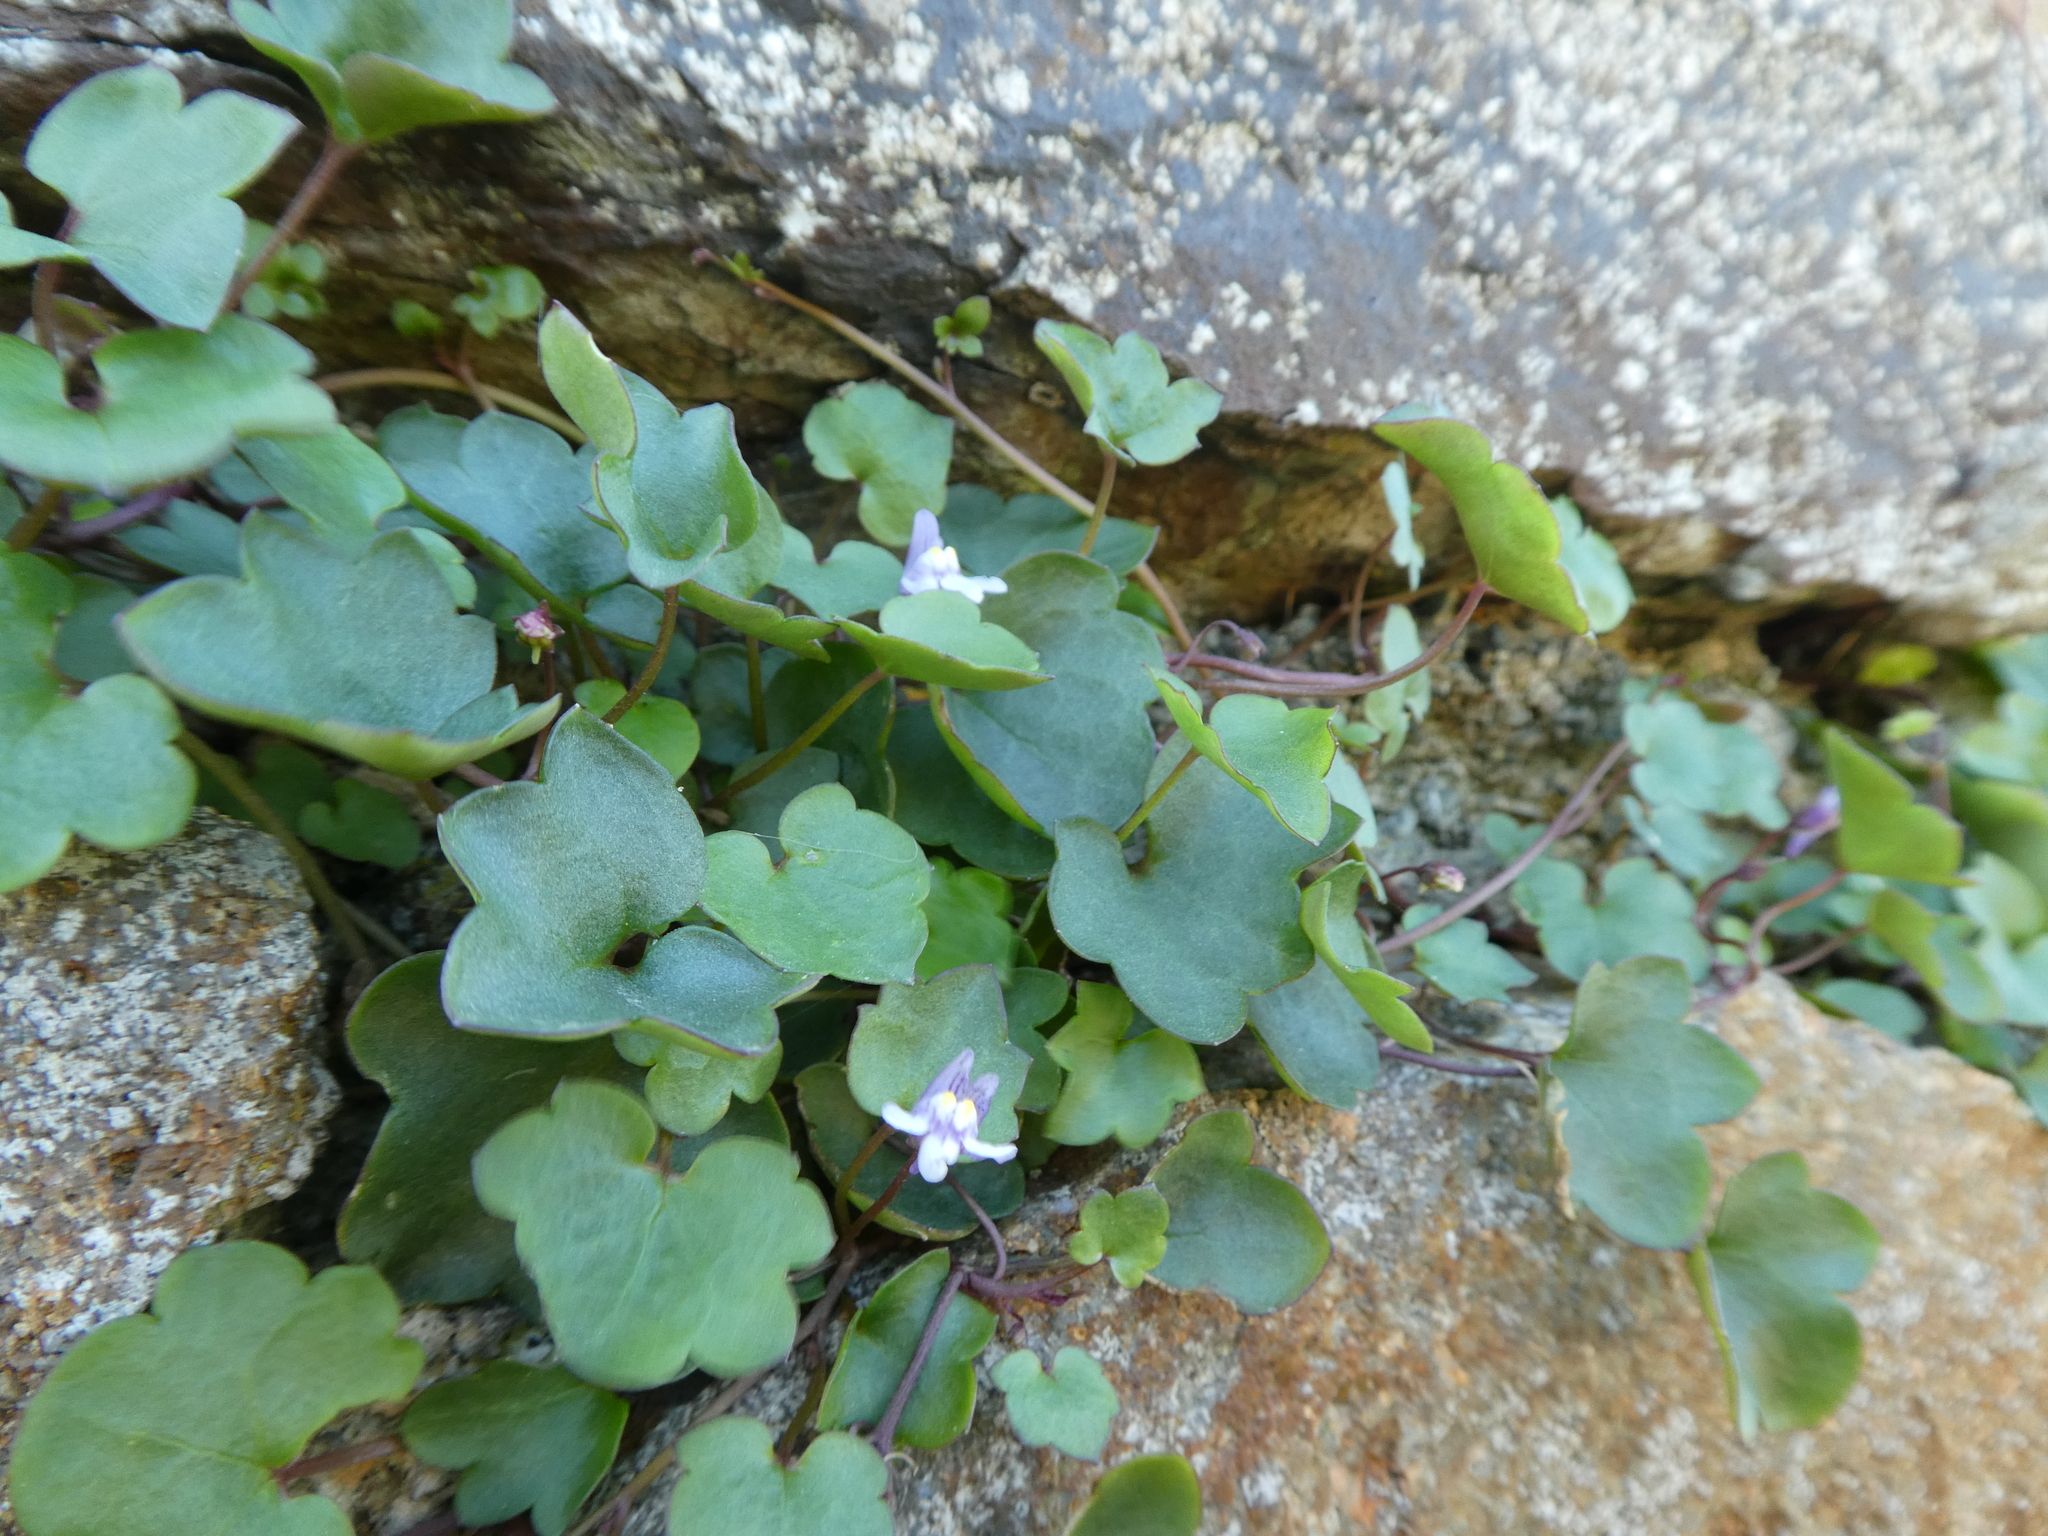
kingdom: Plantae
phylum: Tracheophyta
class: Magnoliopsida
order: Lamiales
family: Plantaginaceae
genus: Cymbalaria
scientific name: Cymbalaria muralis
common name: Ivy-leaved toadflax
